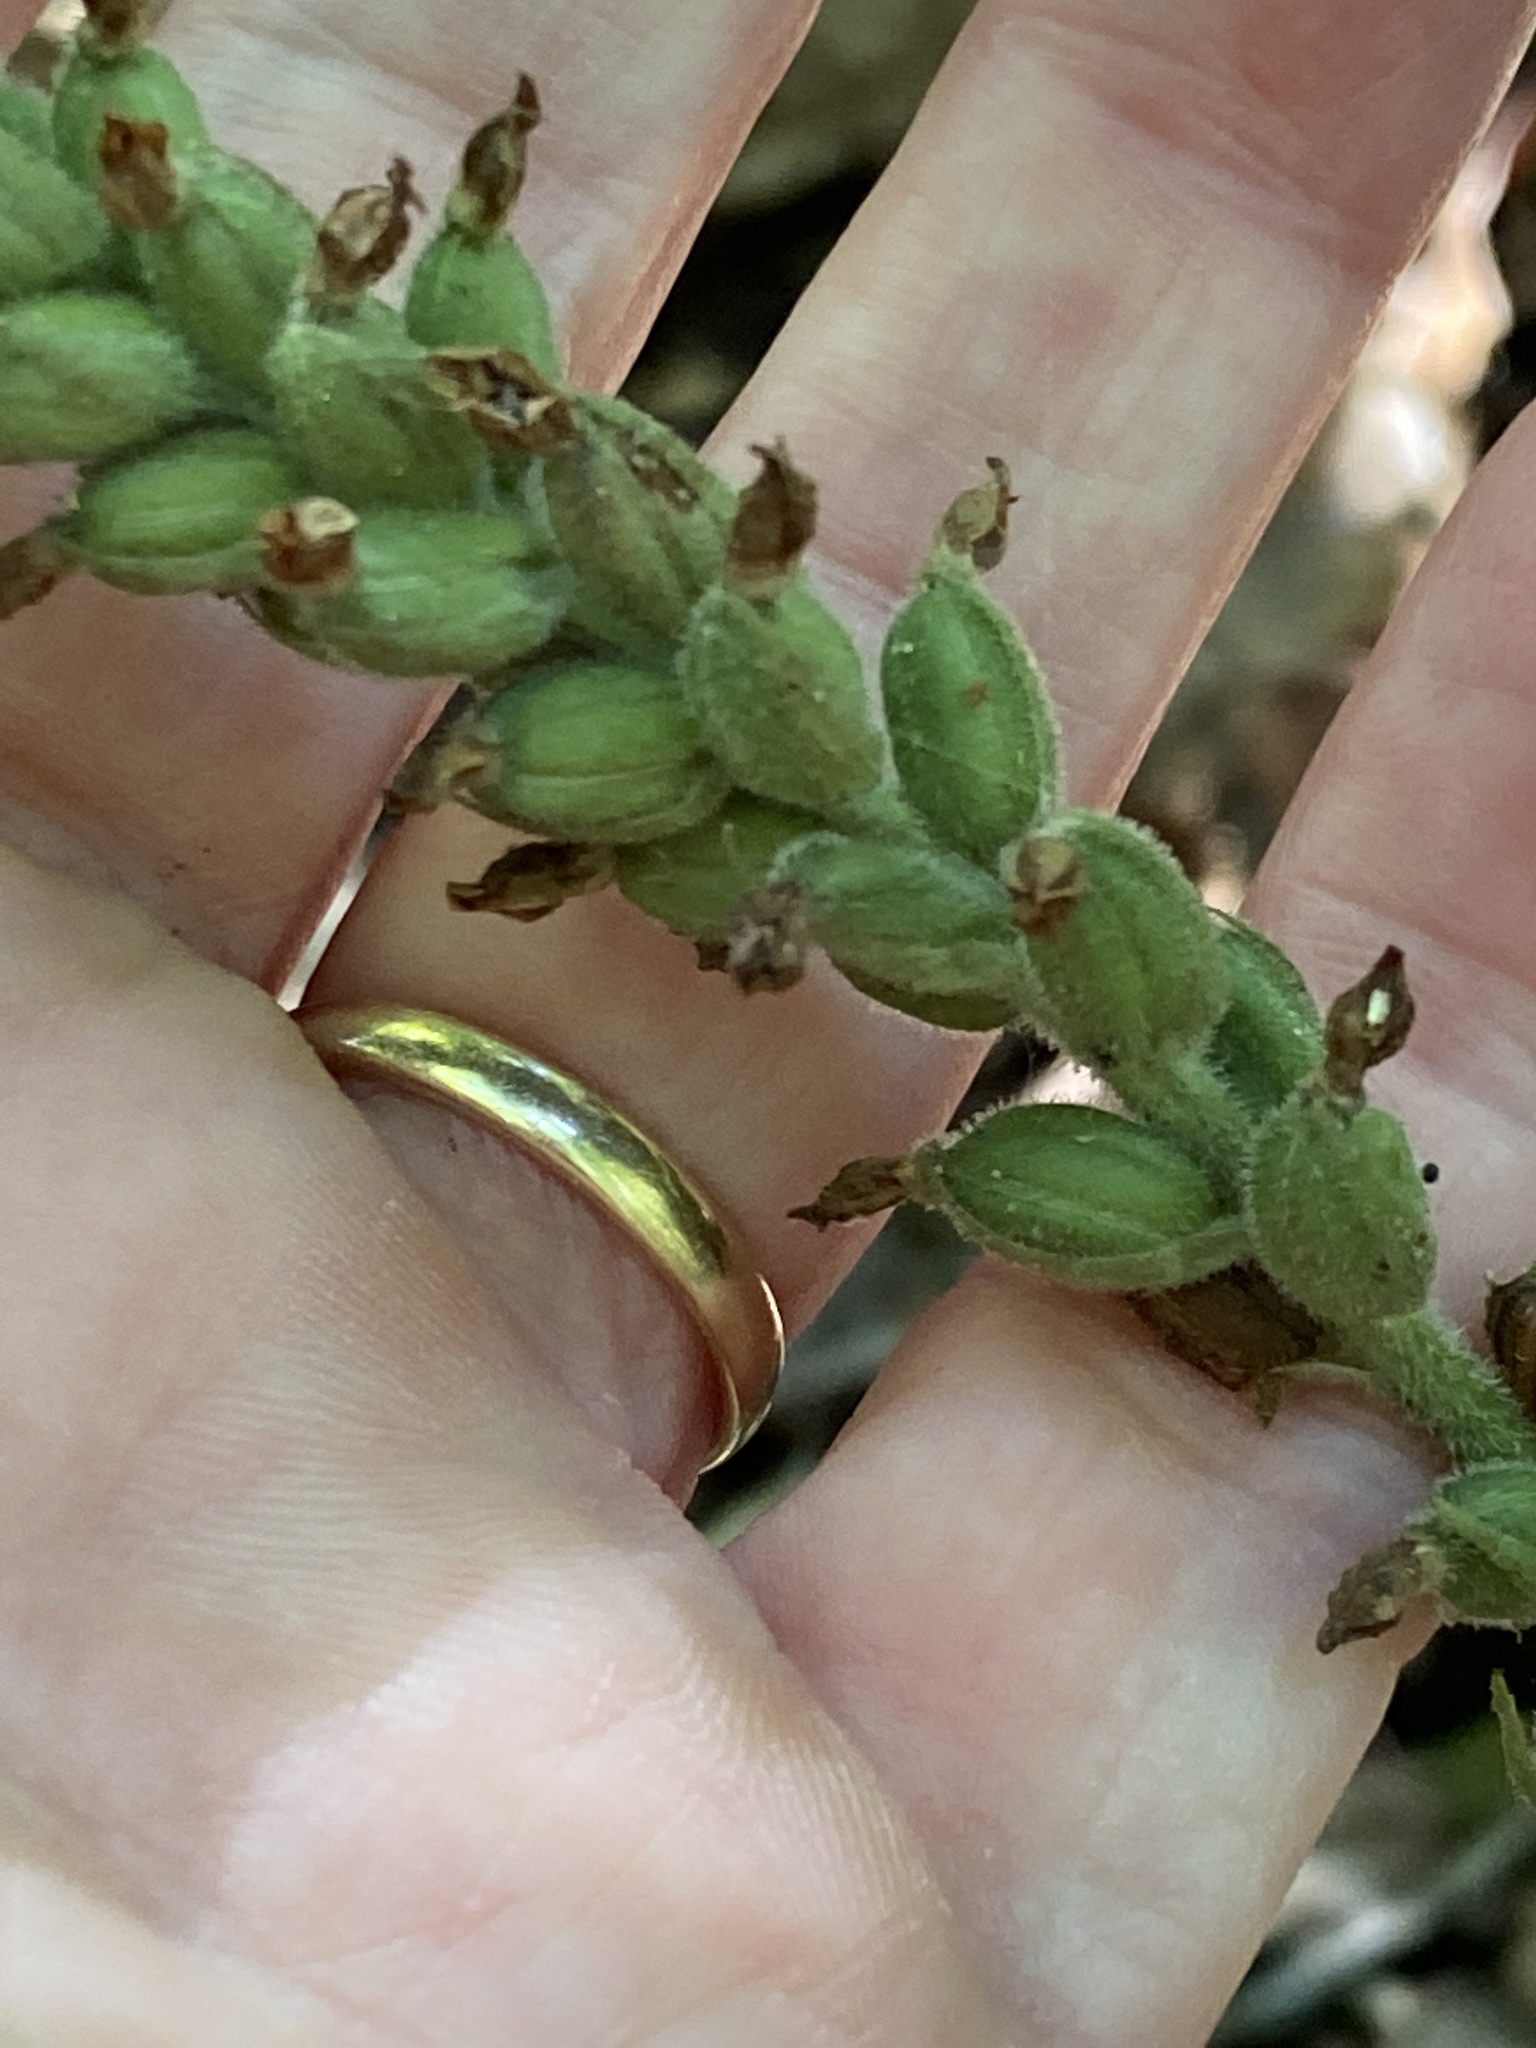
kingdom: Plantae
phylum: Tracheophyta
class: Liliopsida
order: Asparagales
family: Orchidaceae
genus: Goodyera
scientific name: Goodyera pubescens
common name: Downy rattlesnake-plantain
